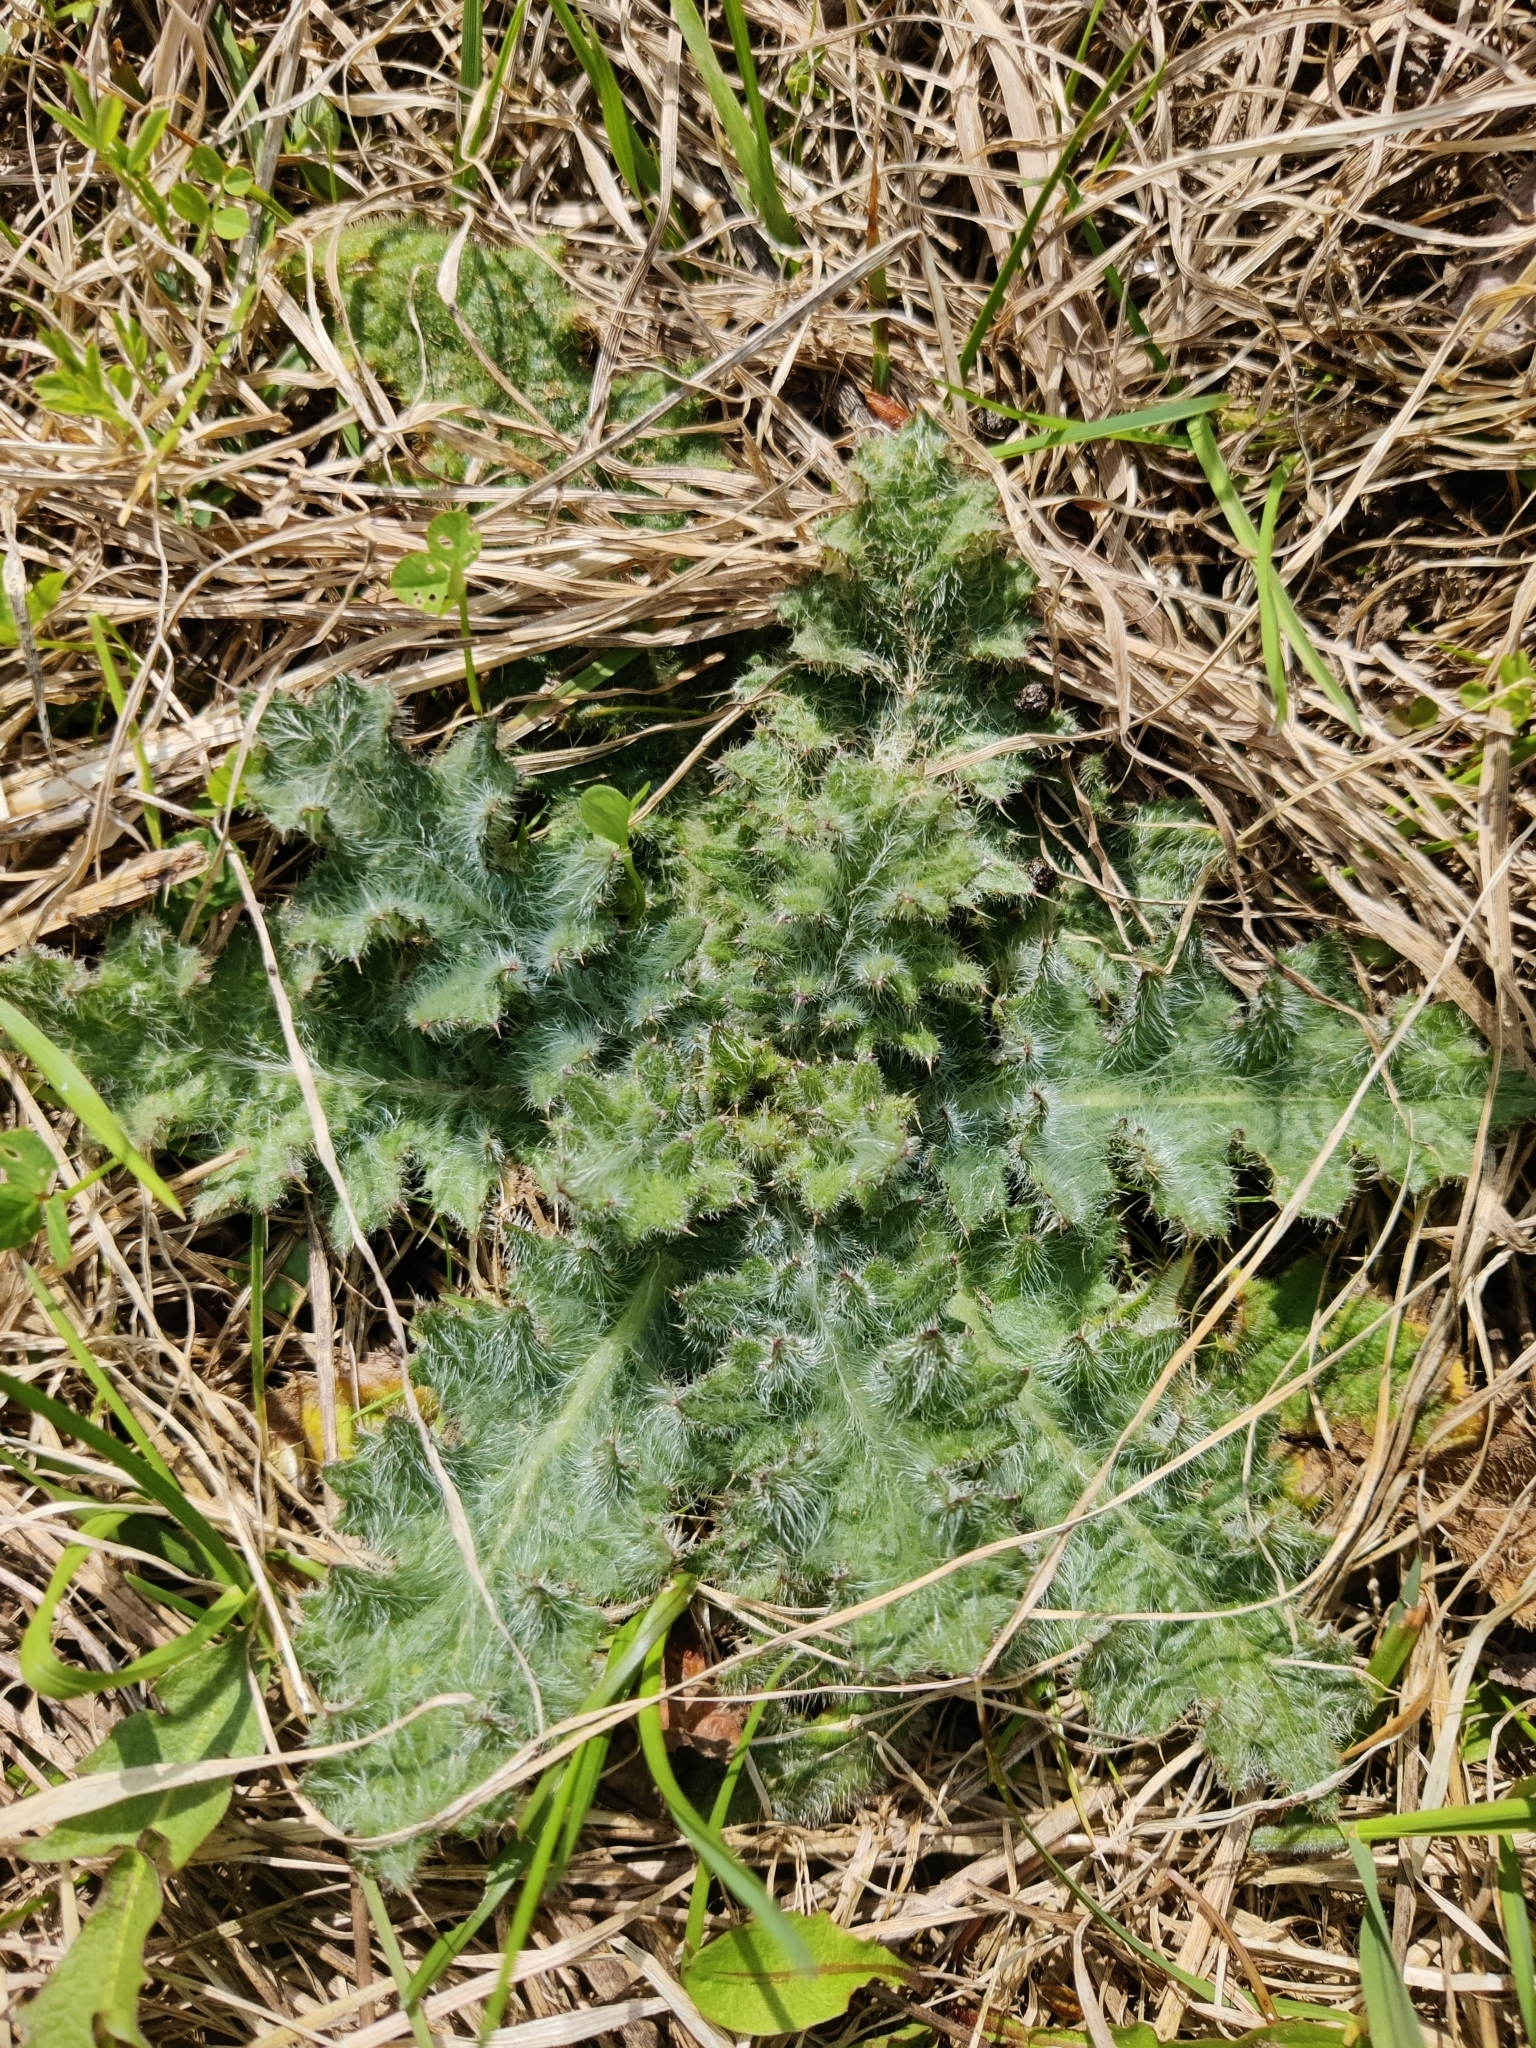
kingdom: Plantae
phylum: Tracheophyta
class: Magnoliopsida
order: Asterales
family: Asteraceae
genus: Cirsium
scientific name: Cirsium vulgare
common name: Bull thistle
